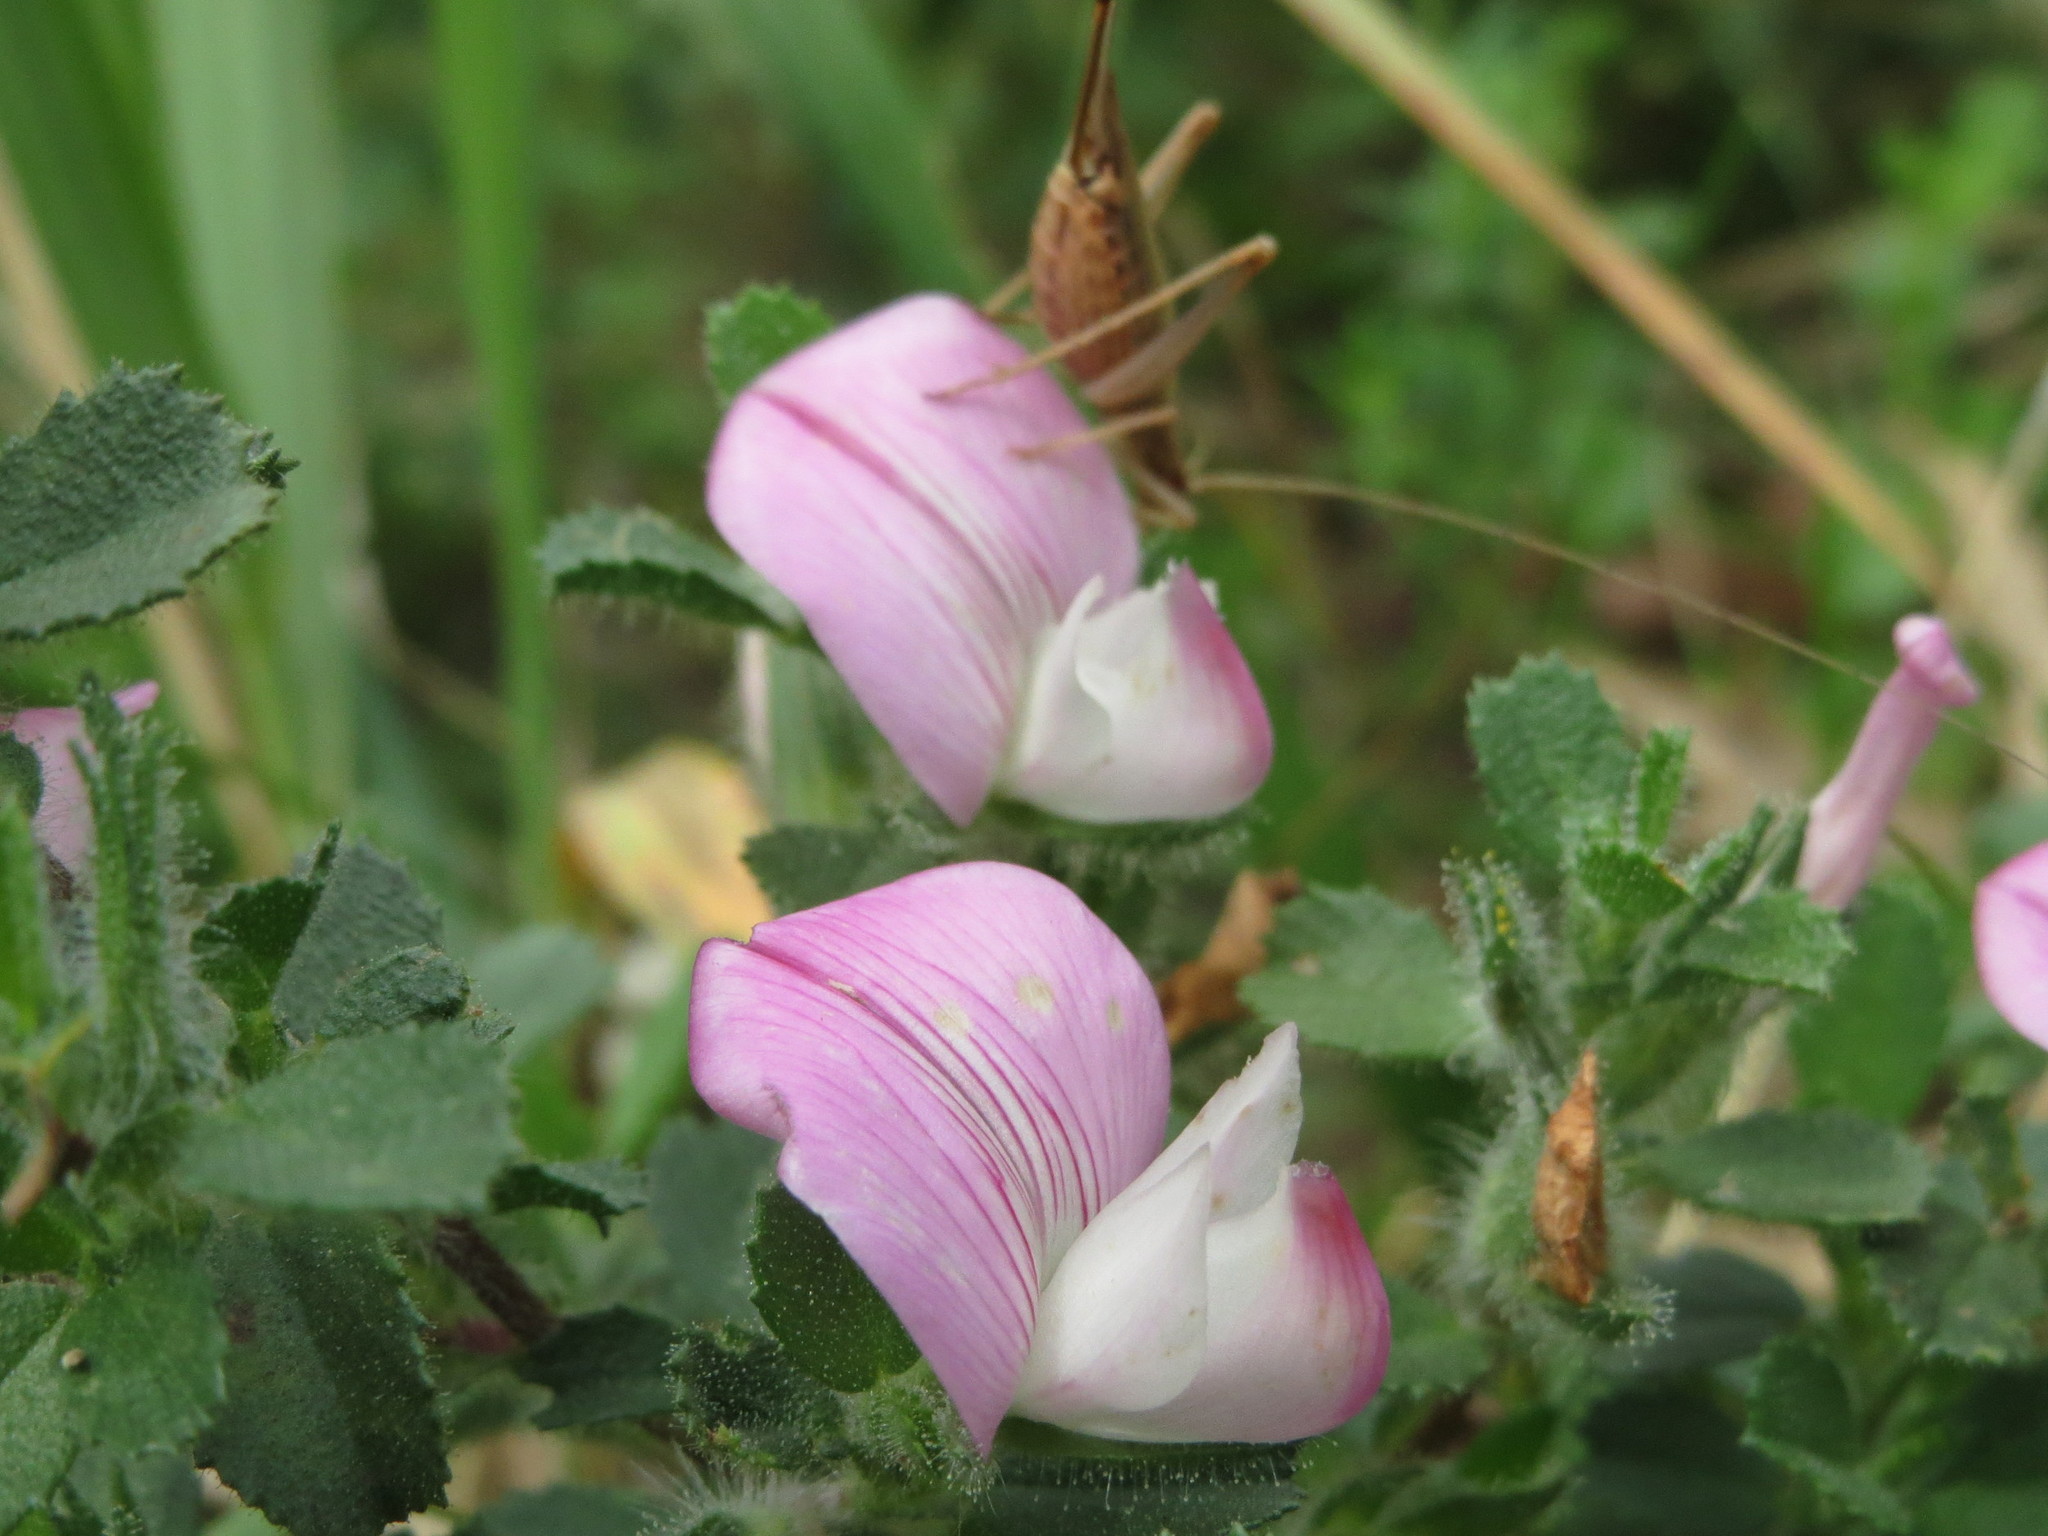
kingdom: Plantae
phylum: Tracheophyta
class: Magnoliopsida
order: Fabales
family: Fabaceae
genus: Ononis
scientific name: Ononis spinosa
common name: Spiny restharrow
